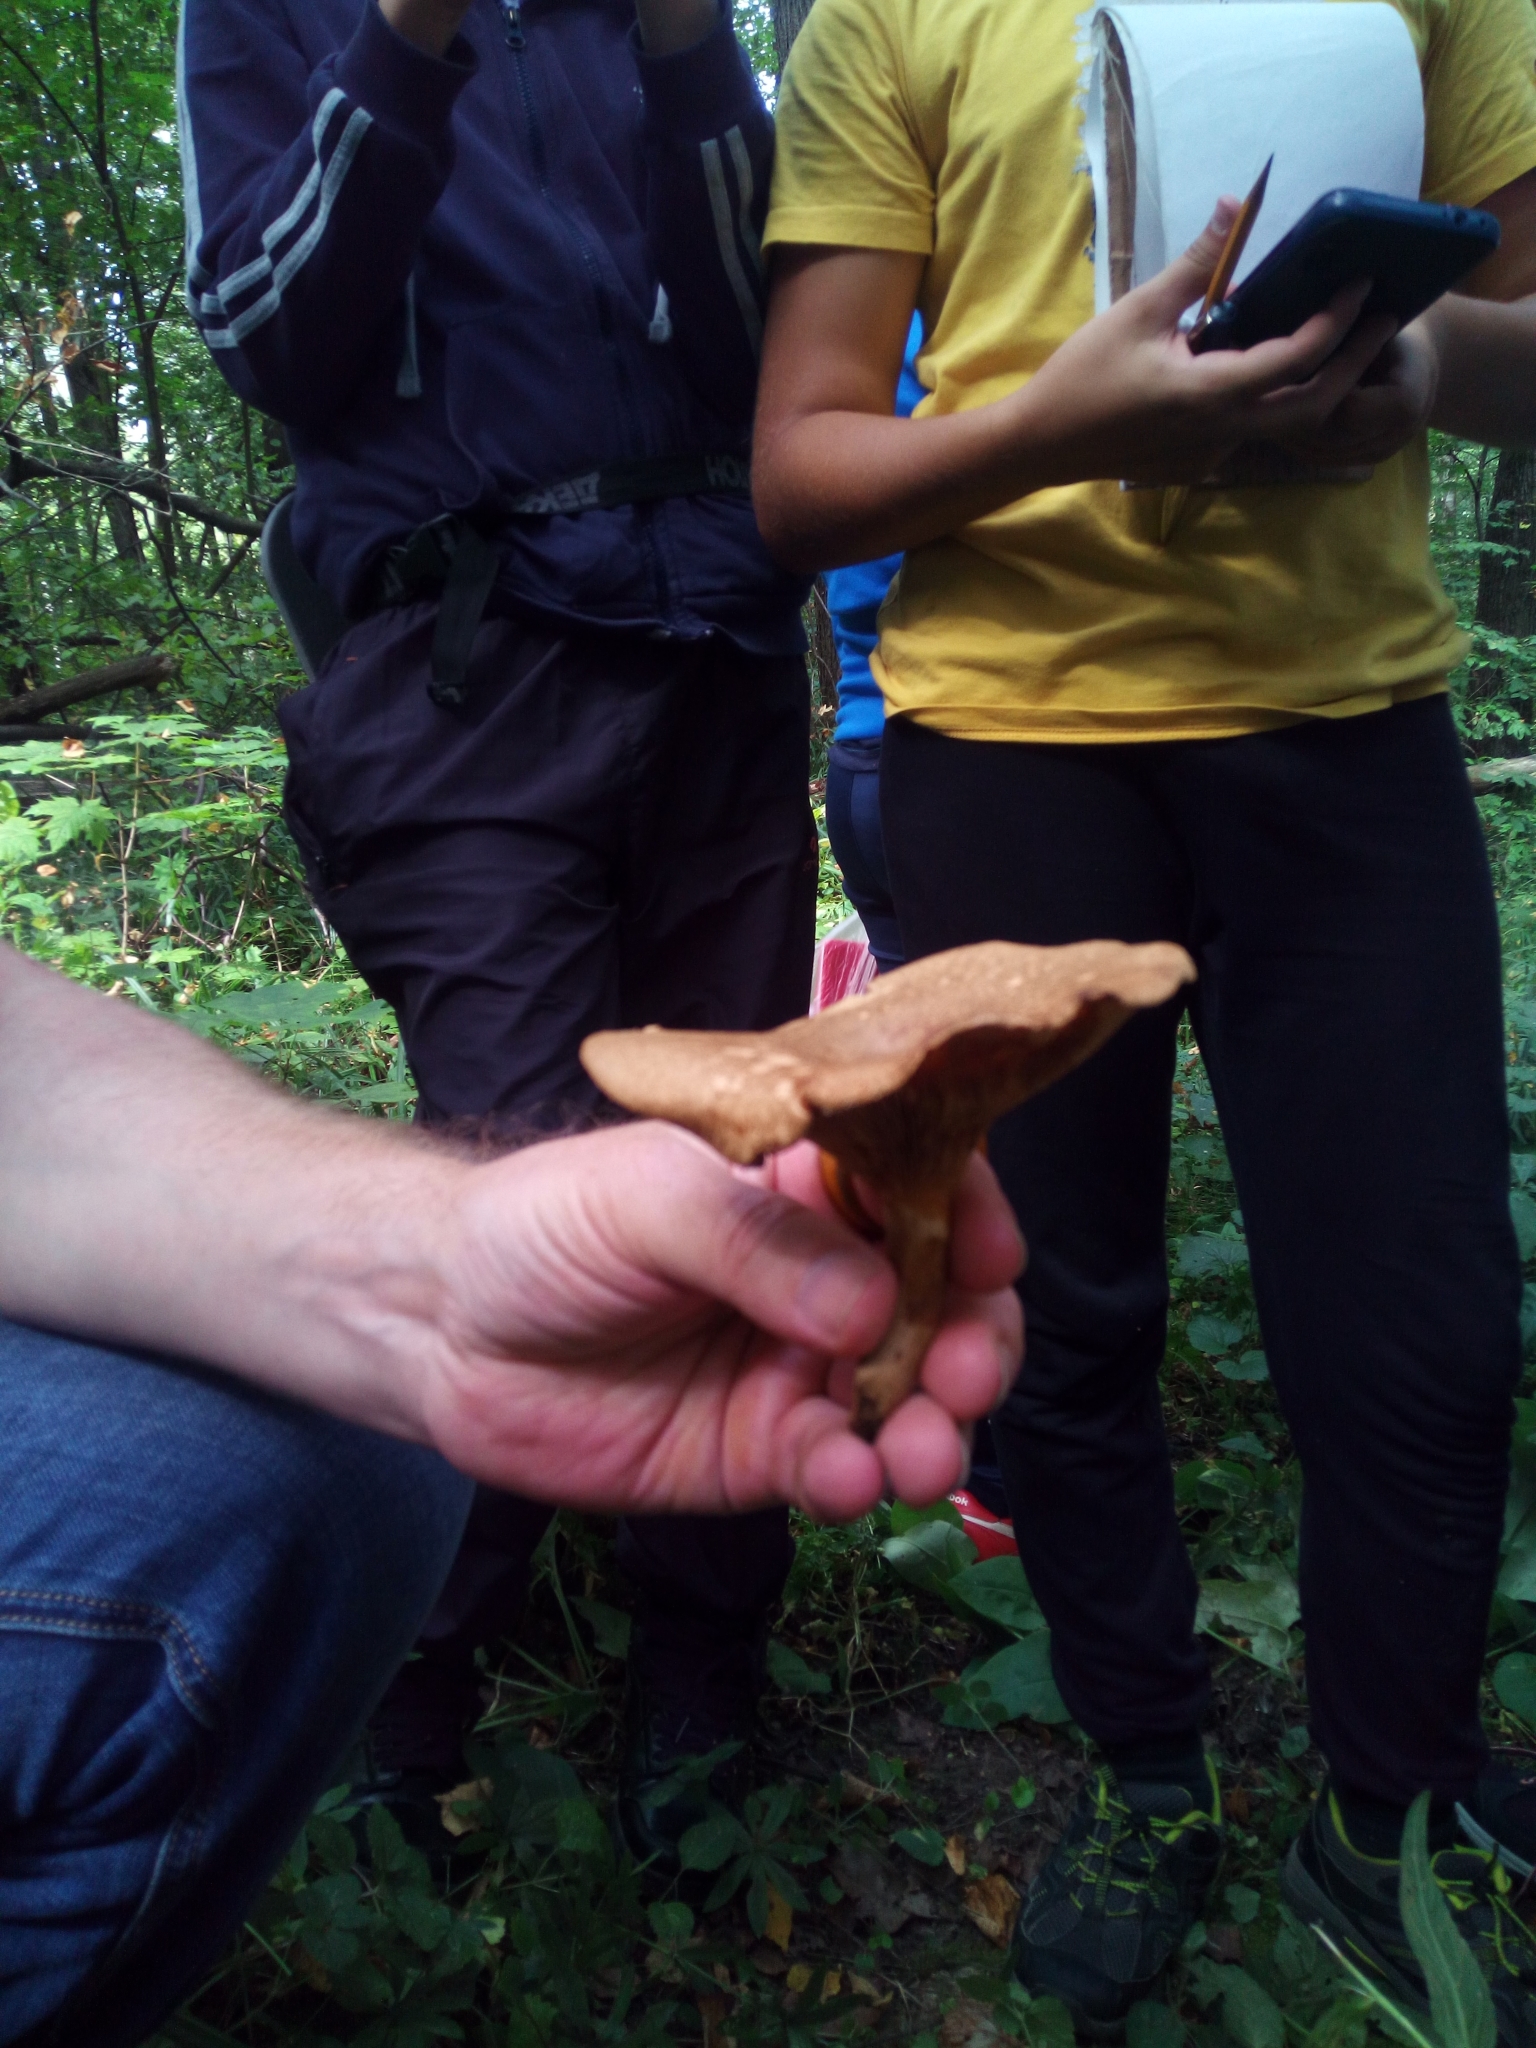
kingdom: Fungi
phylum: Basidiomycota
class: Agaricomycetes
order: Boletales
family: Paxillaceae
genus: Paxillus
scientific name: Paxillus involutus
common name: Brown roll rim
